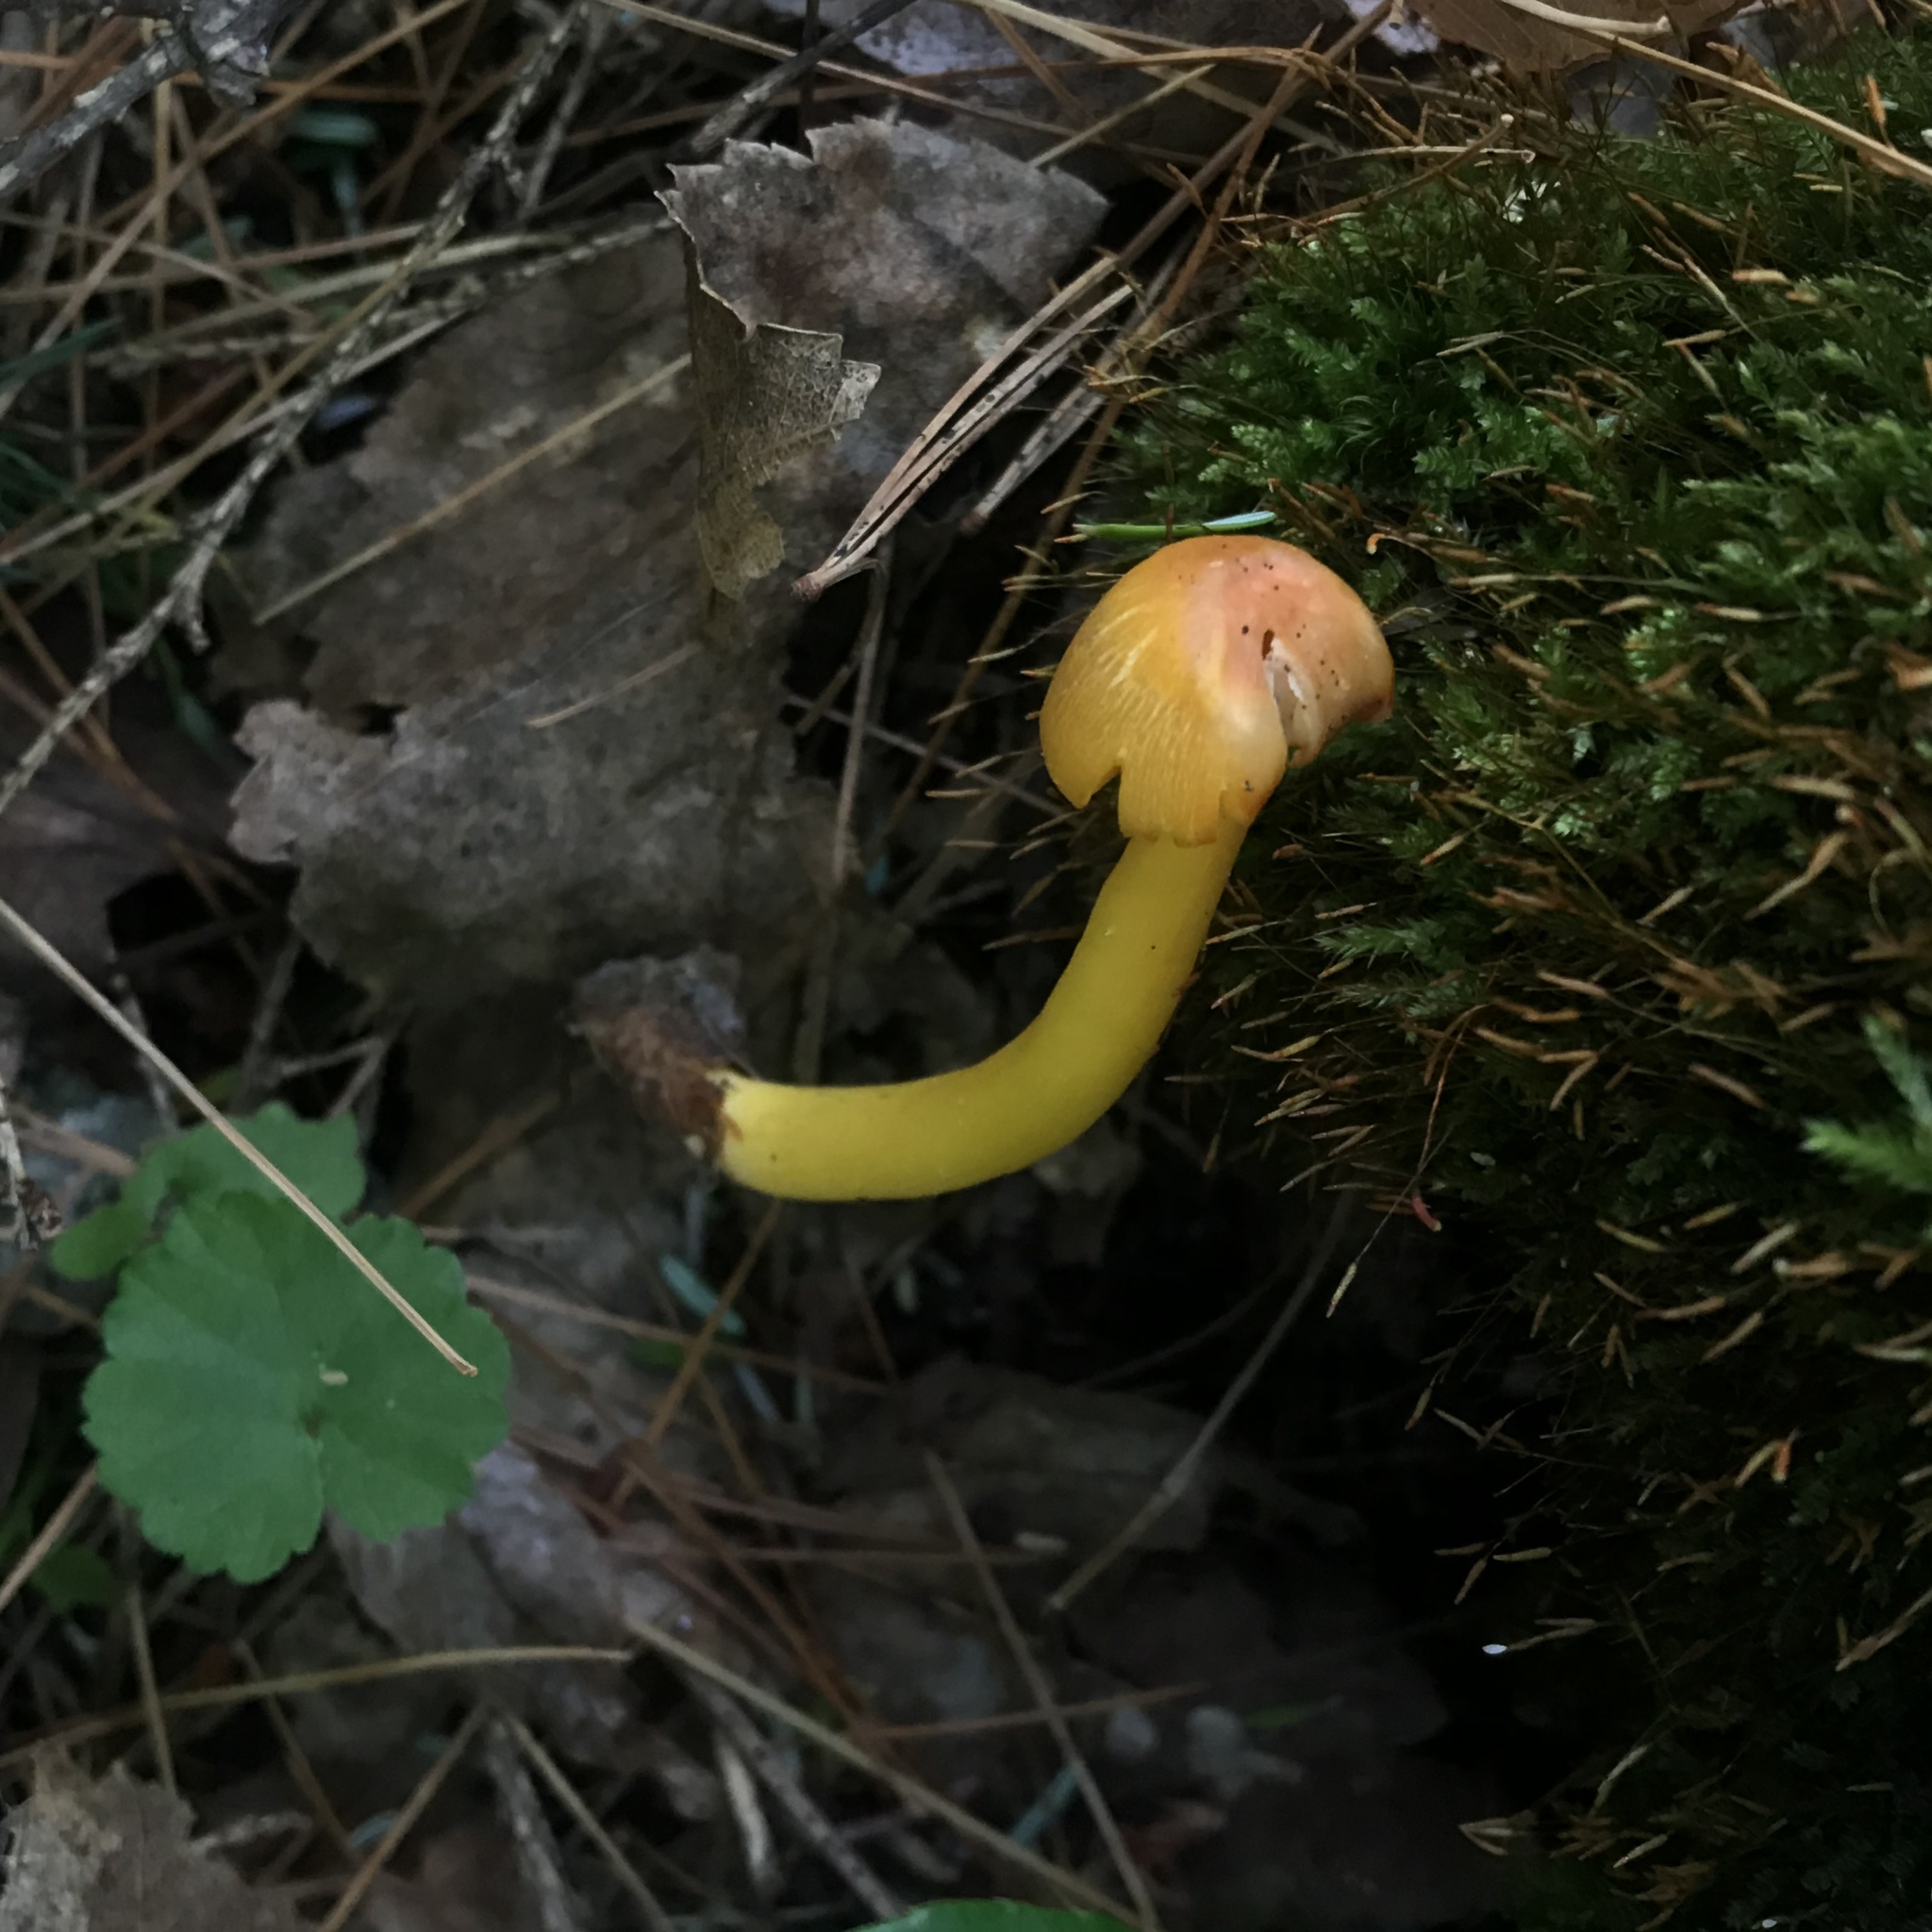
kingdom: Fungi
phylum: Basidiomycota
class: Agaricomycetes
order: Agaricales
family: Hygrophoraceae
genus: Humidicutis
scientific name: Humidicutis marginata
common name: Orange gilled waxcap
